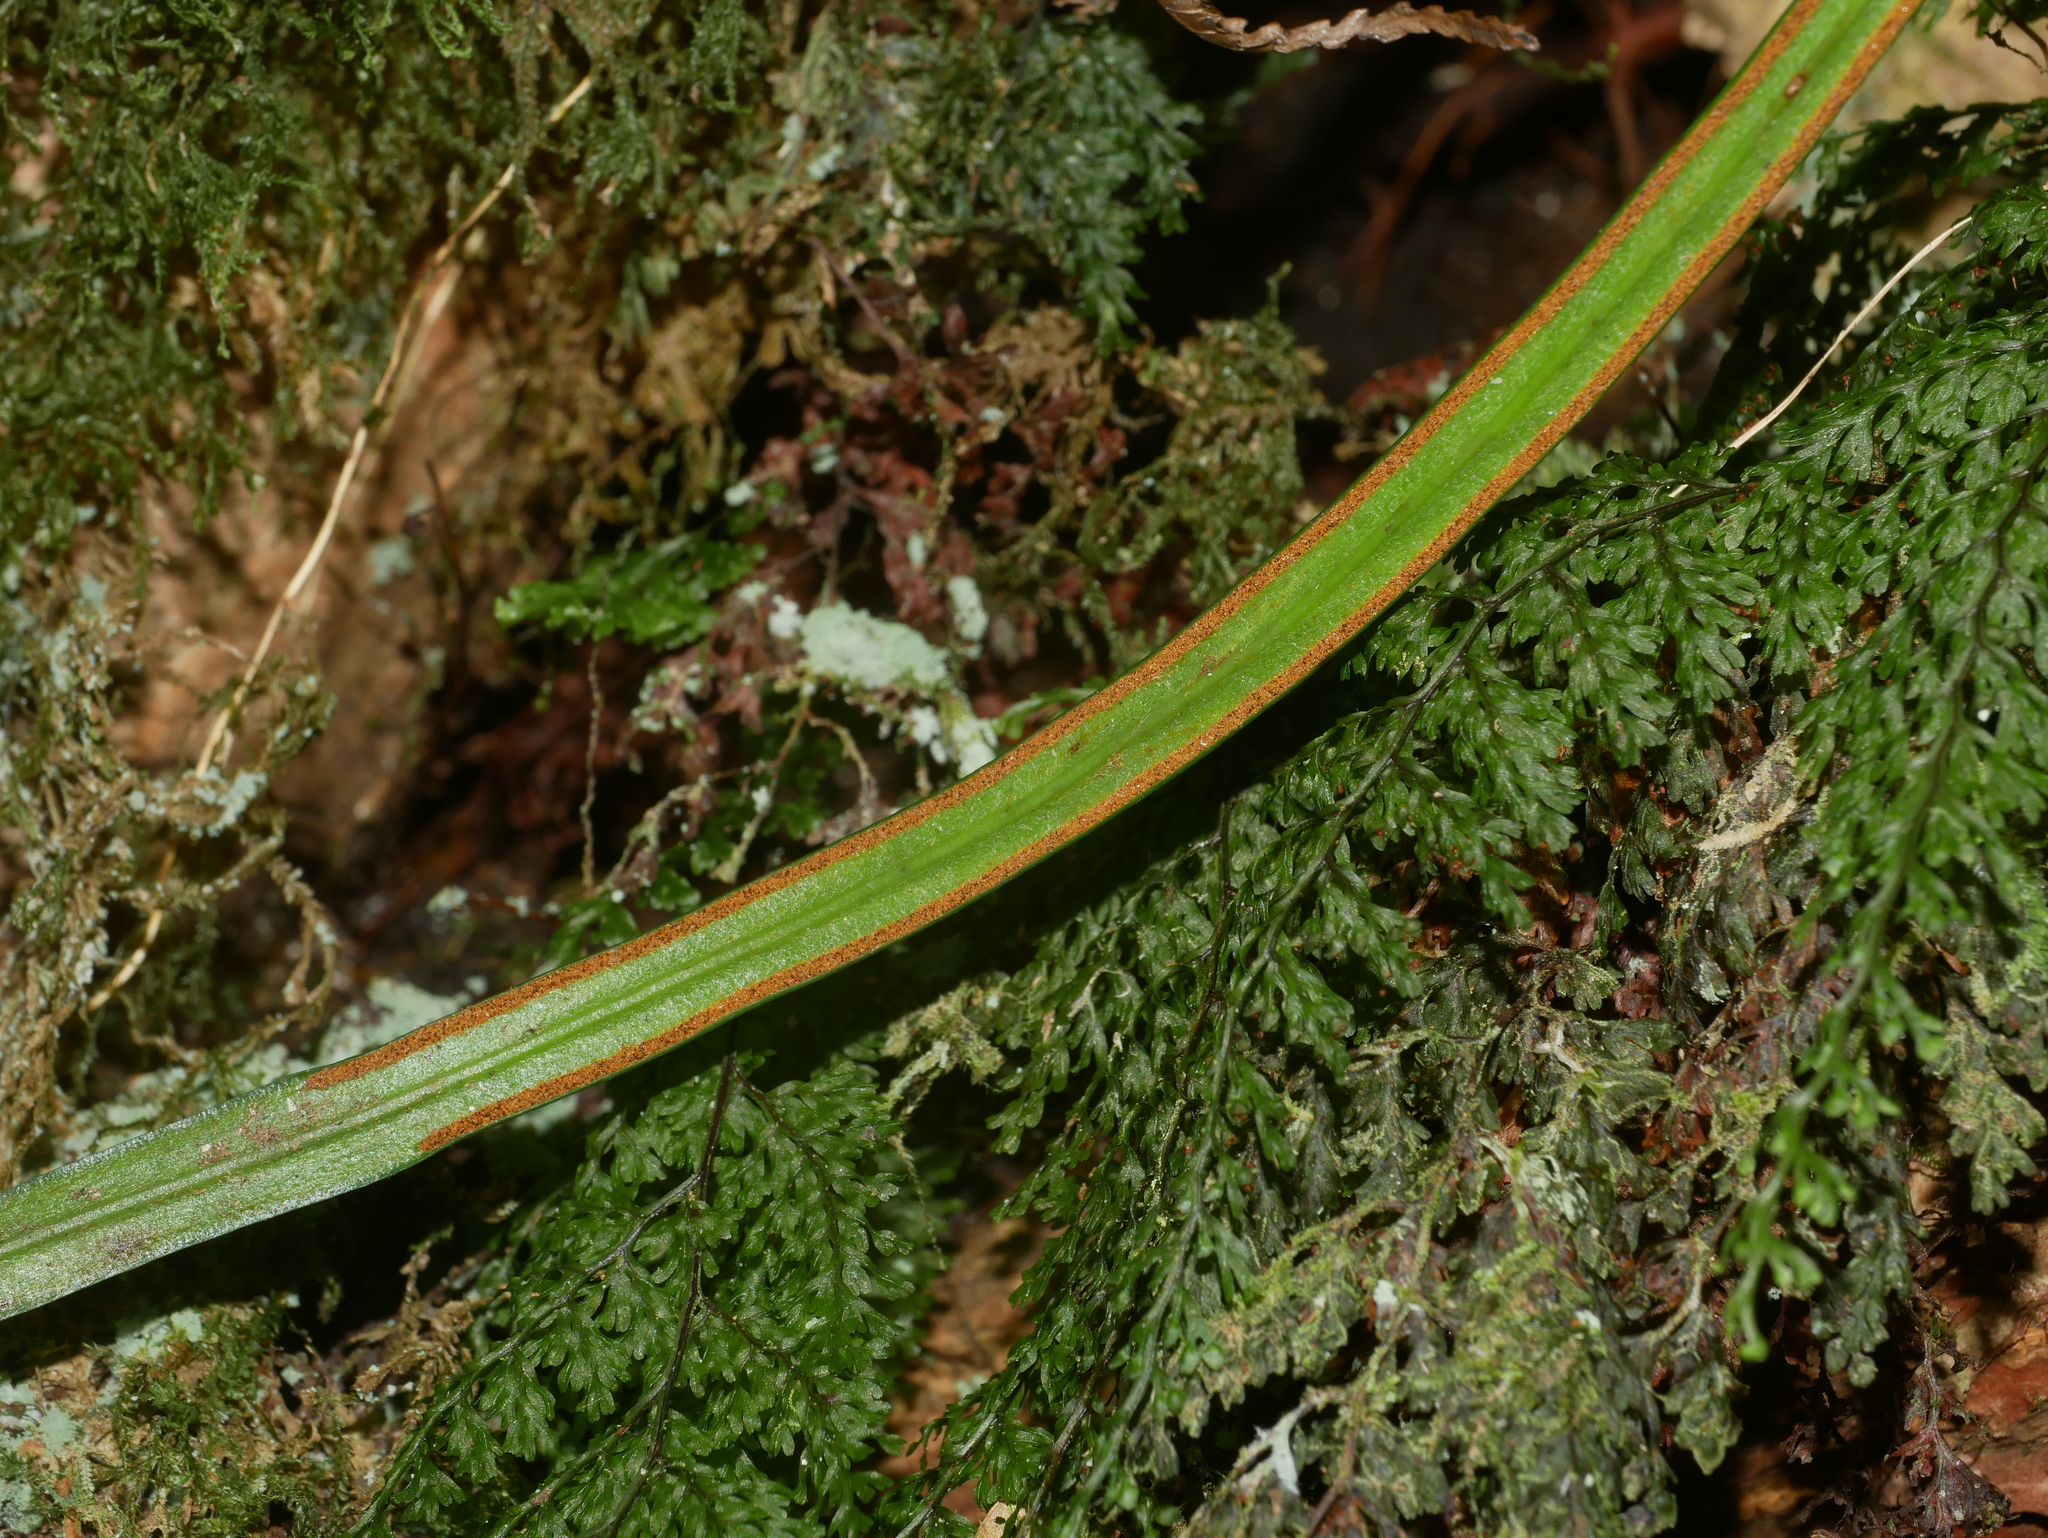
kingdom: Plantae
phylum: Tracheophyta
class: Polypodiopsida
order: Polypodiales
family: Pteridaceae
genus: Haplopteris
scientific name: Haplopteris flexuosa
